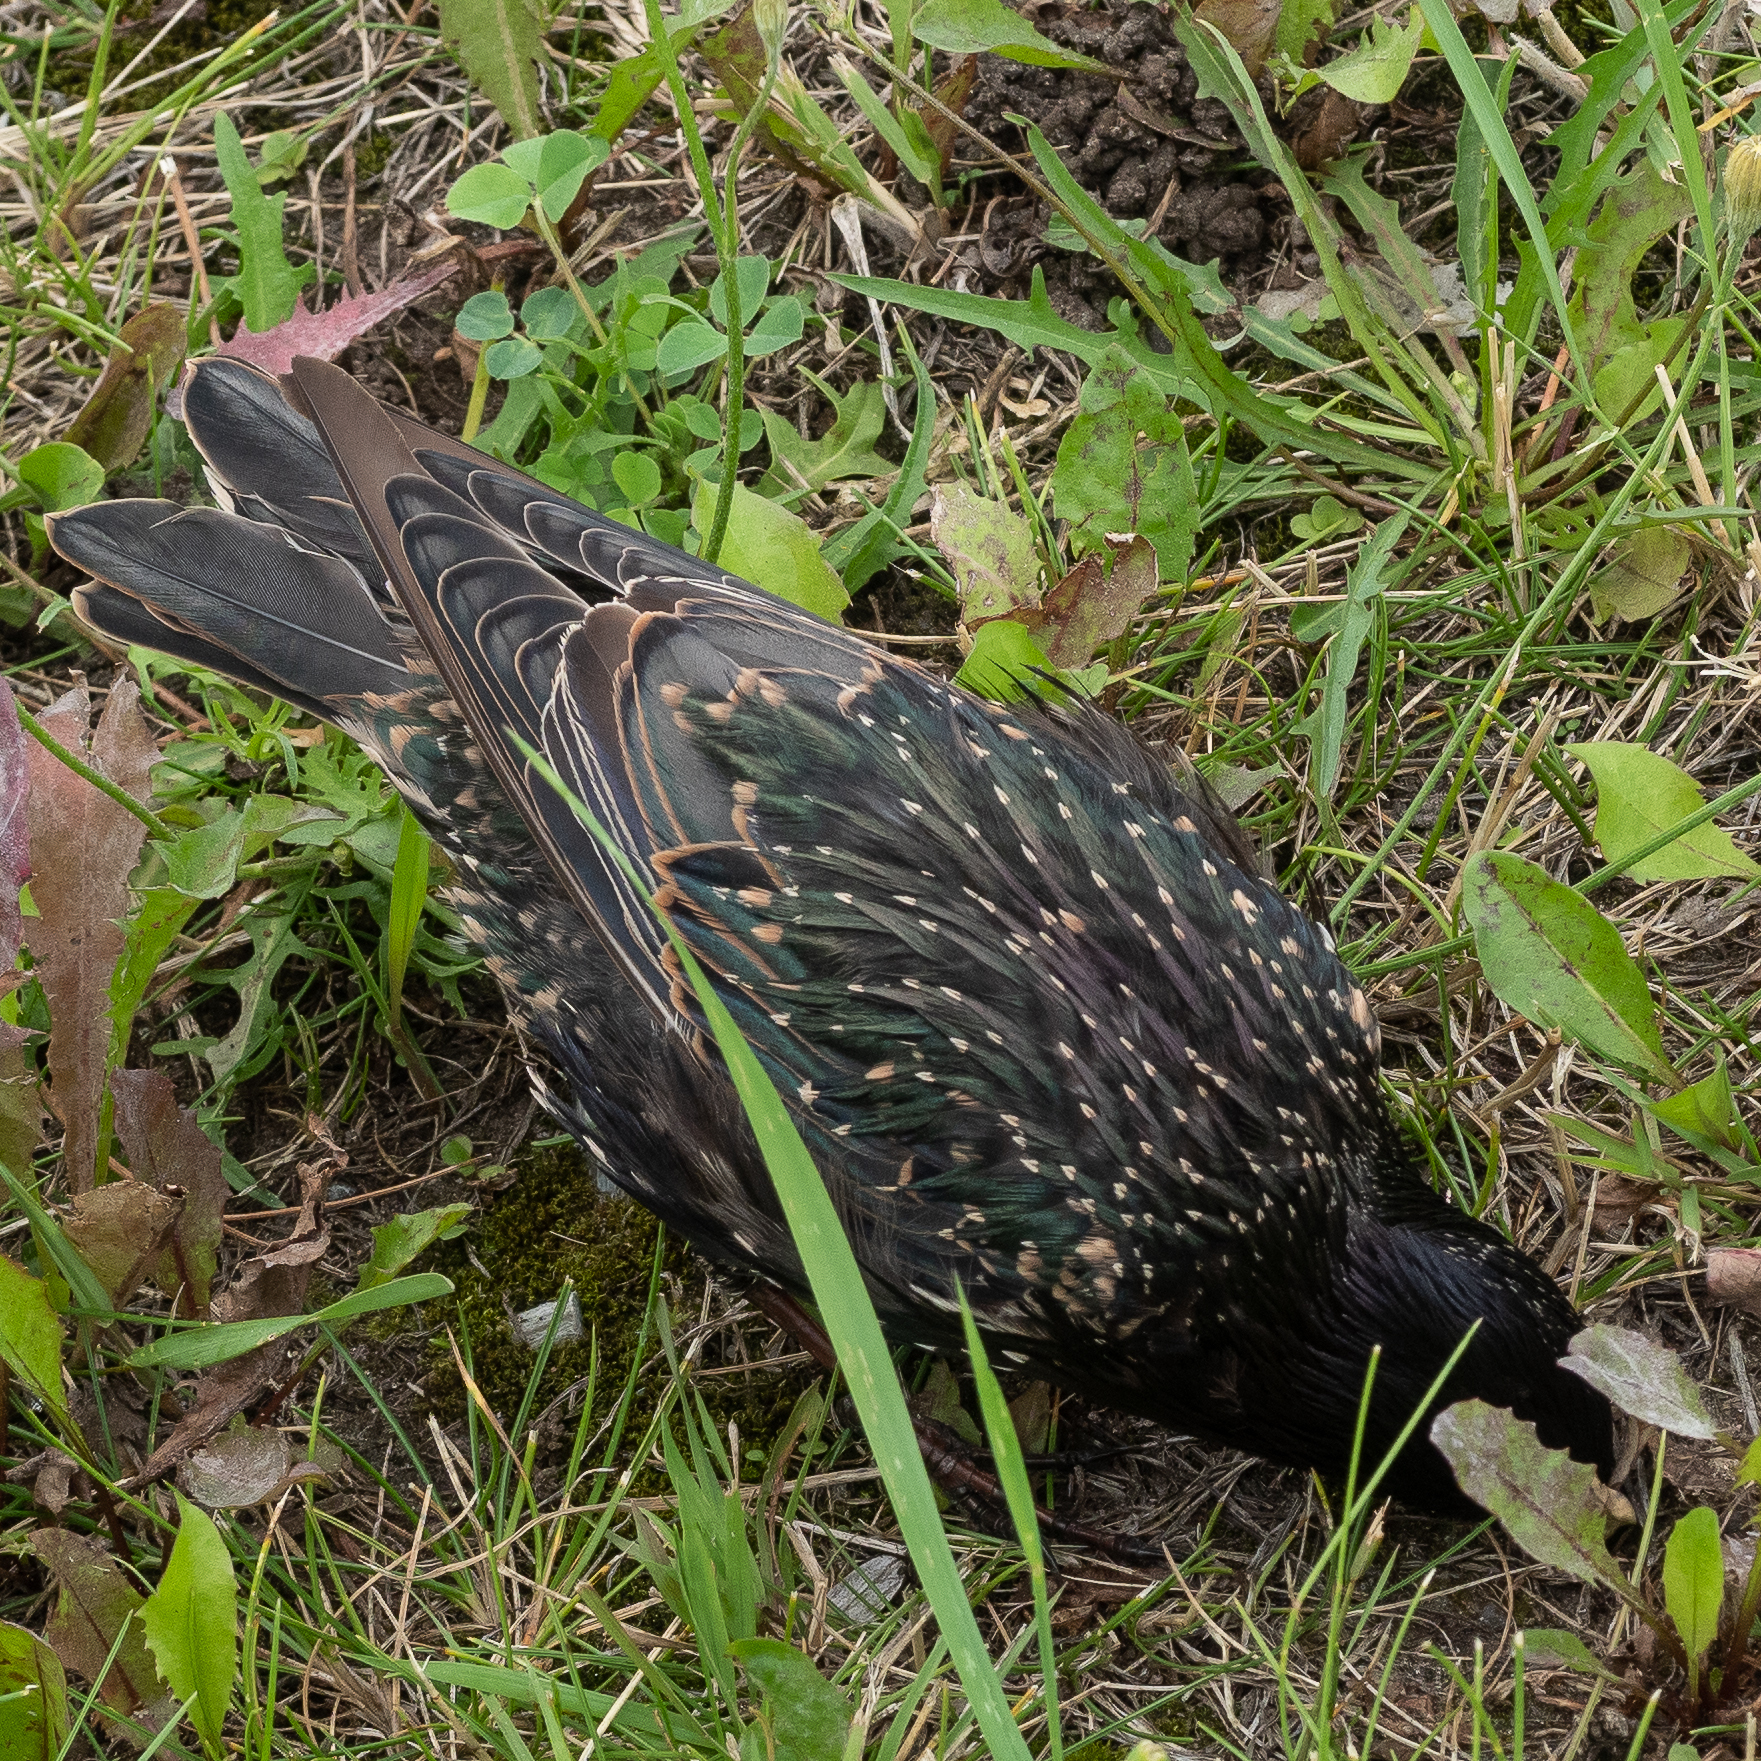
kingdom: Animalia
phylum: Chordata
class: Aves
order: Passeriformes
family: Sturnidae
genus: Sturnus
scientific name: Sturnus vulgaris
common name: Common starling
